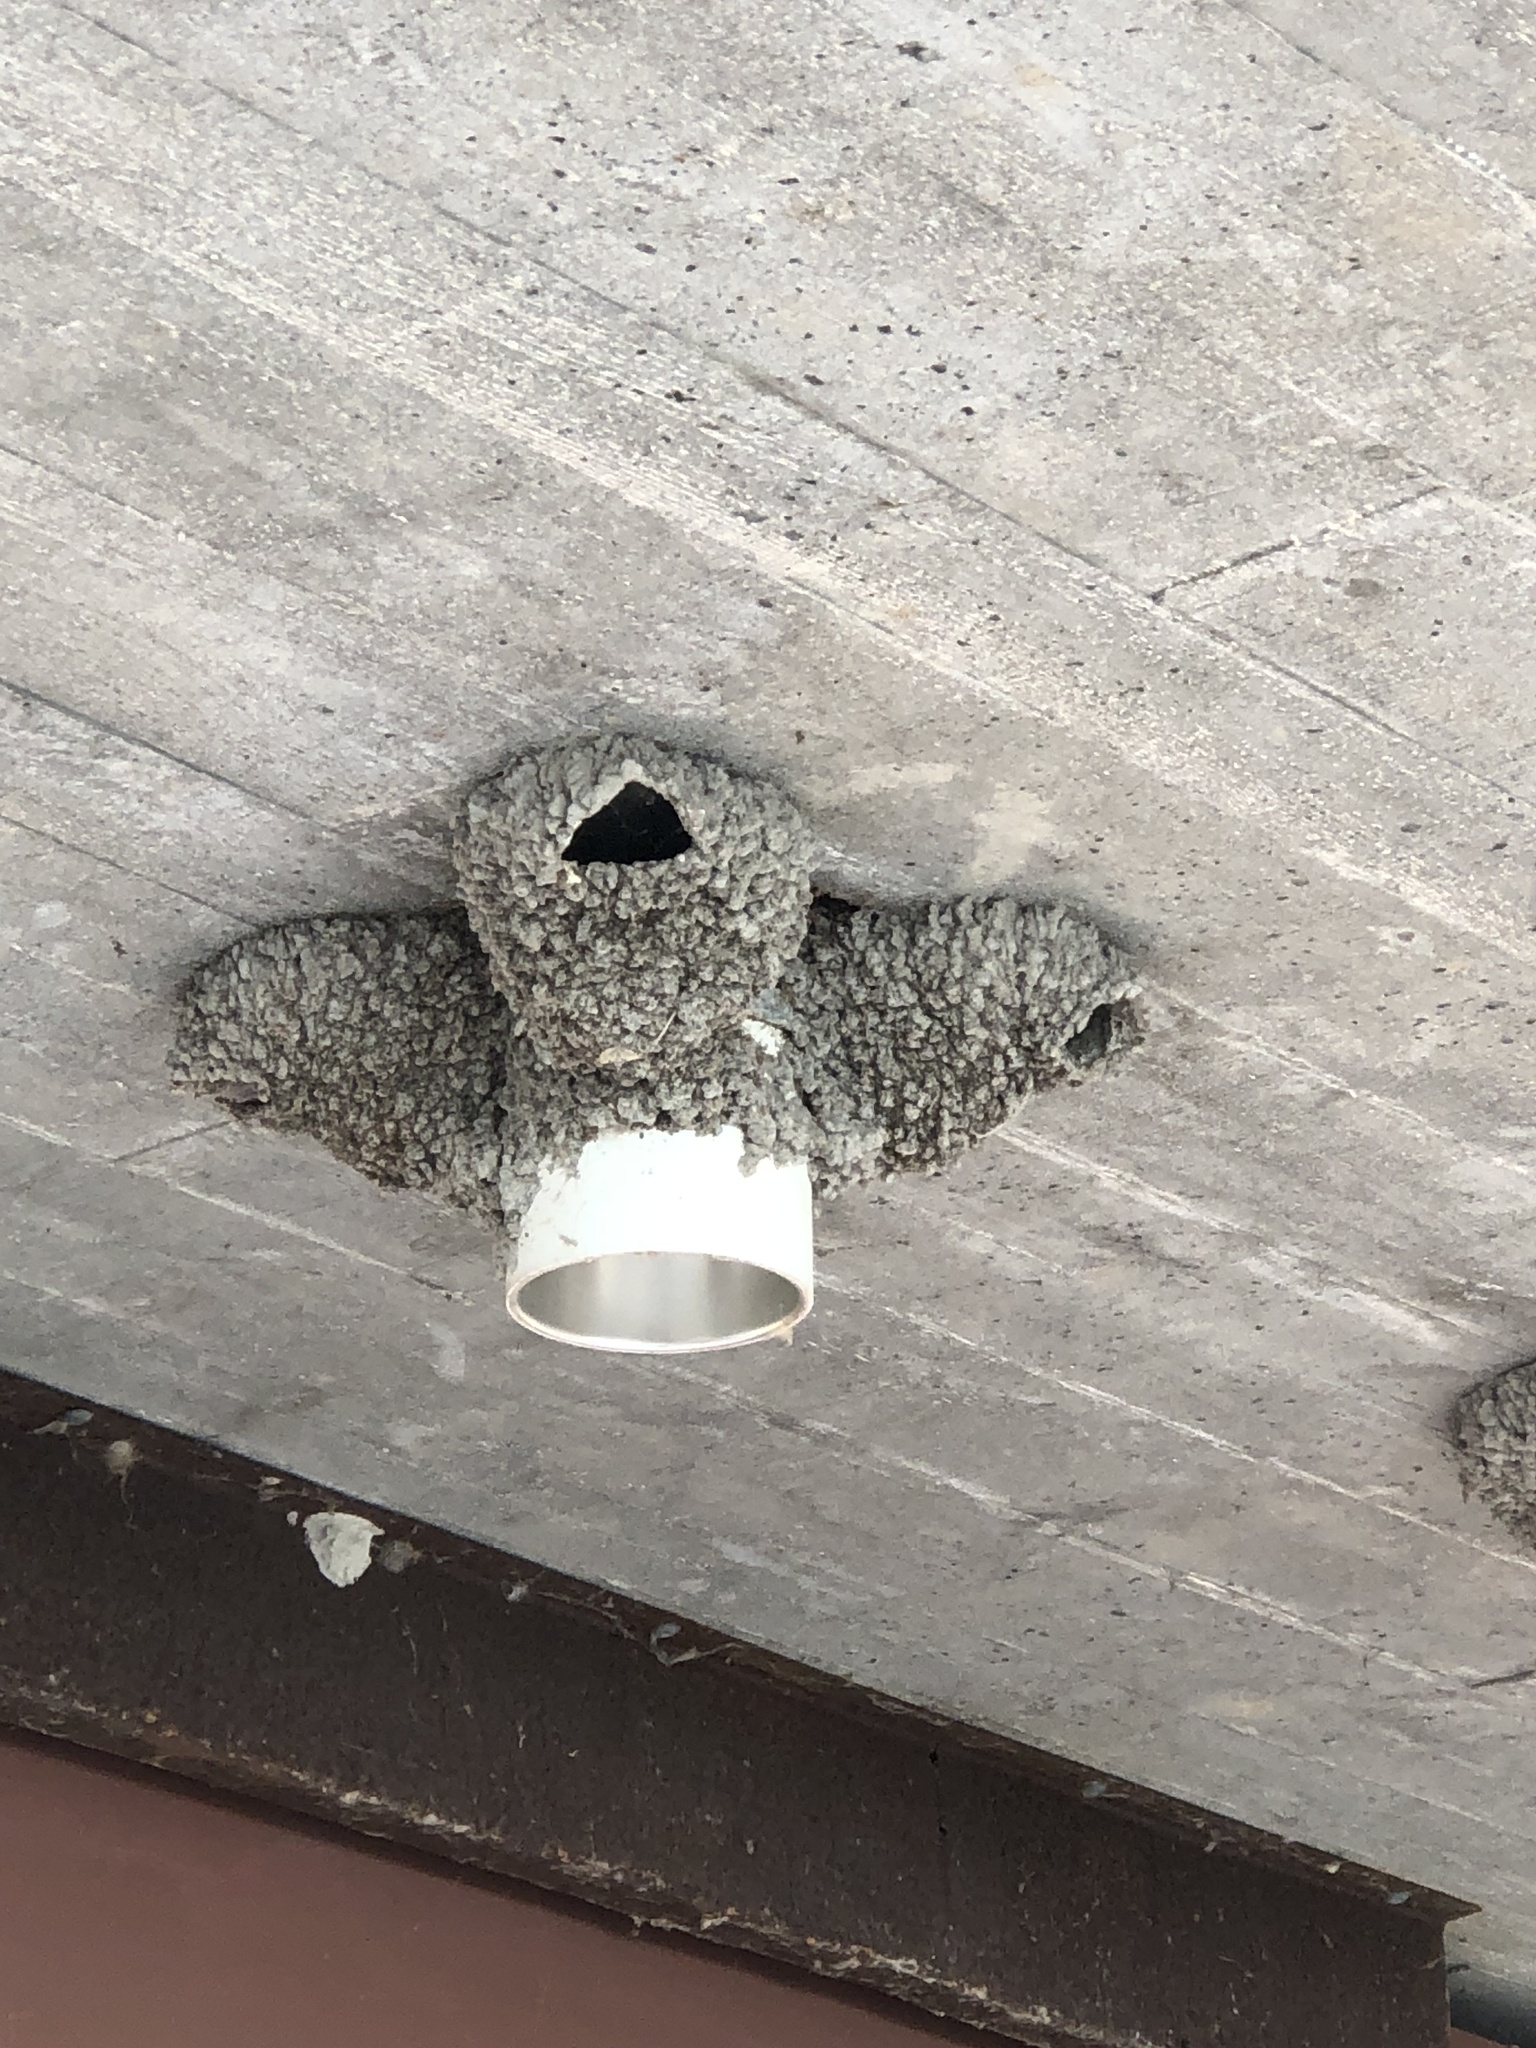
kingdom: Animalia
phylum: Chordata
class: Aves
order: Passeriformes
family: Hirundinidae
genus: Petrochelidon
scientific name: Petrochelidon pyrrhonota
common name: American cliff swallow
